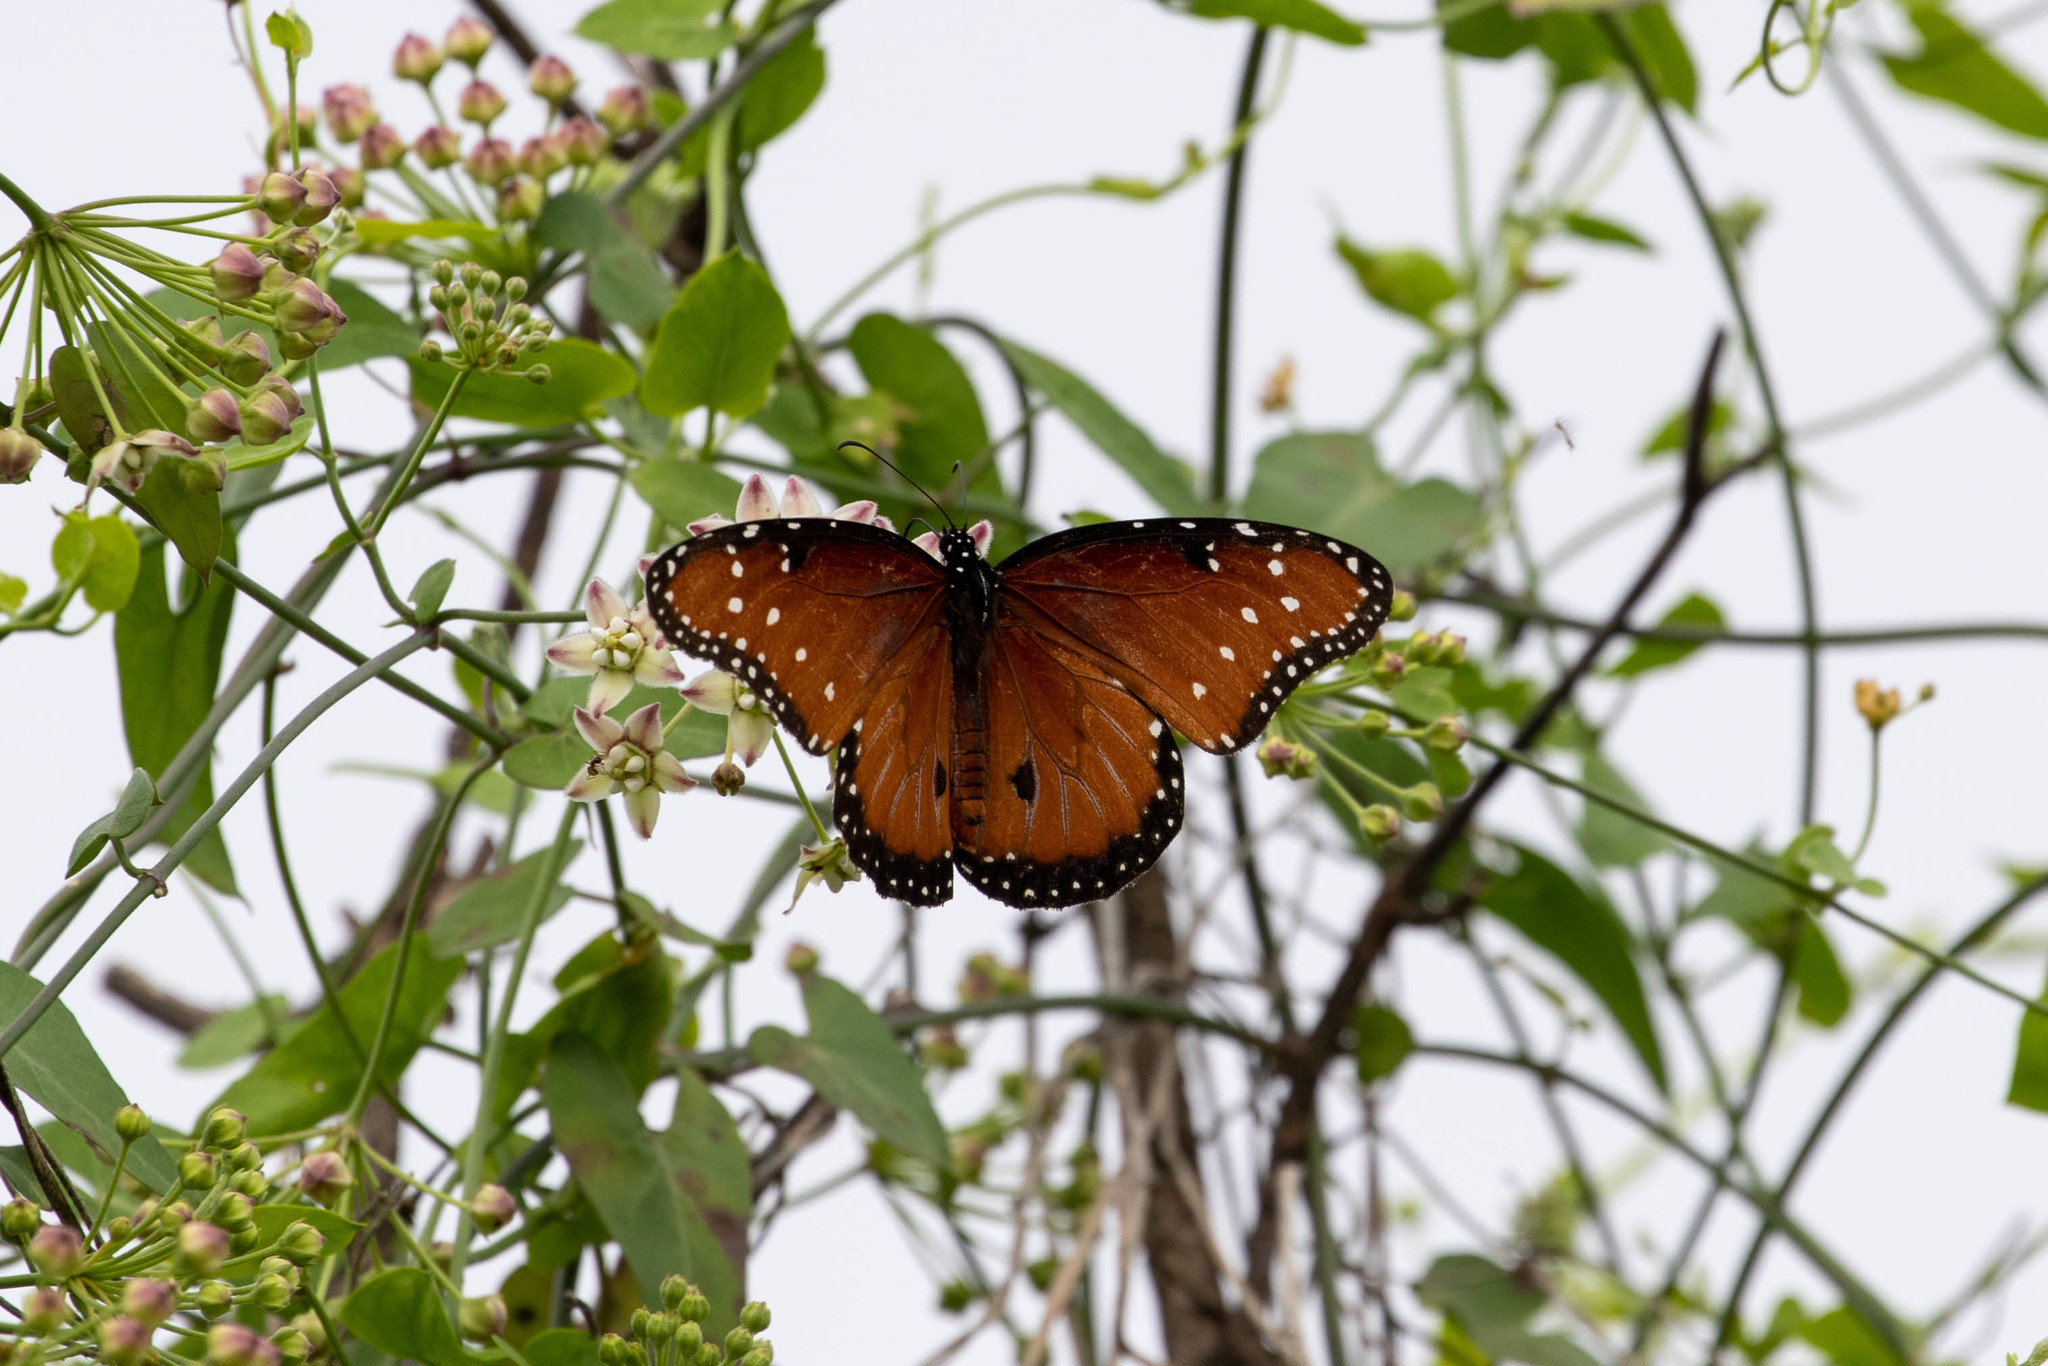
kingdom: Animalia
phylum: Arthropoda
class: Insecta
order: Lepidoptera
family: Nymphalidae
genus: Danaus
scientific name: Danaus gilippus
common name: Queen
